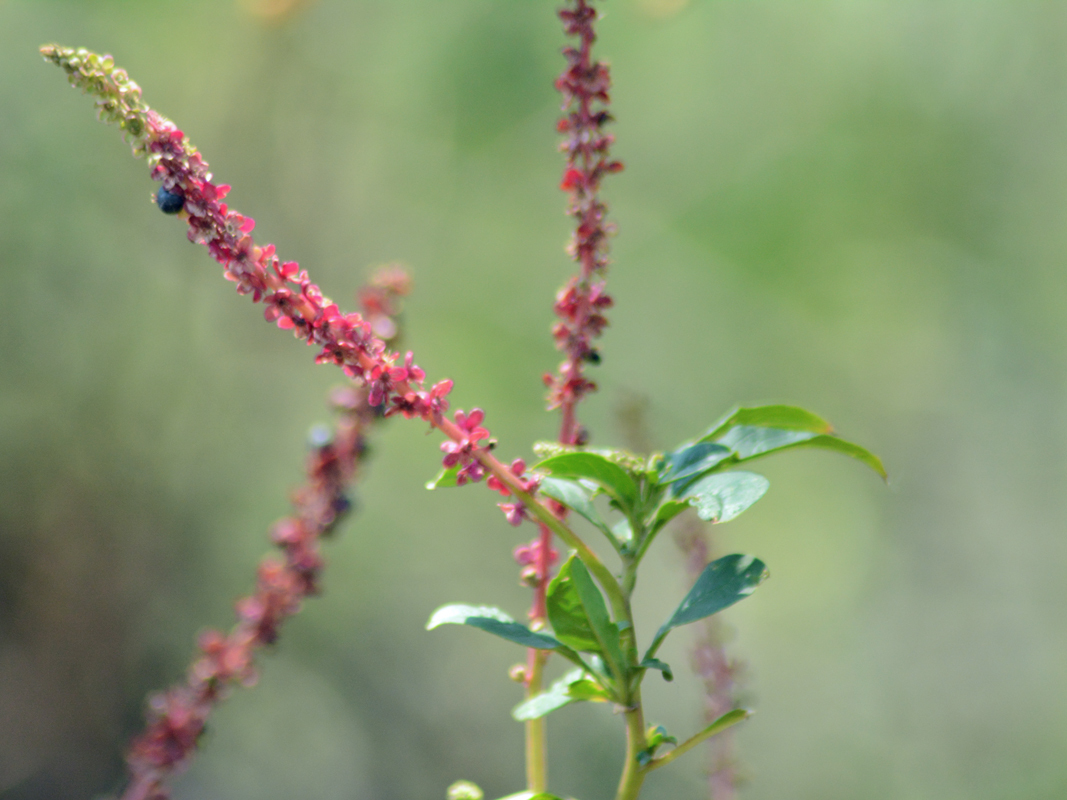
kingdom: Plantae
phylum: Tracheophyta
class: Magnoliopsida
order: Caryophyllales
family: Phytolaccaceae
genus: Phytolacca
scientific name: Phytolacca icosandra
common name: Button pokeweed
